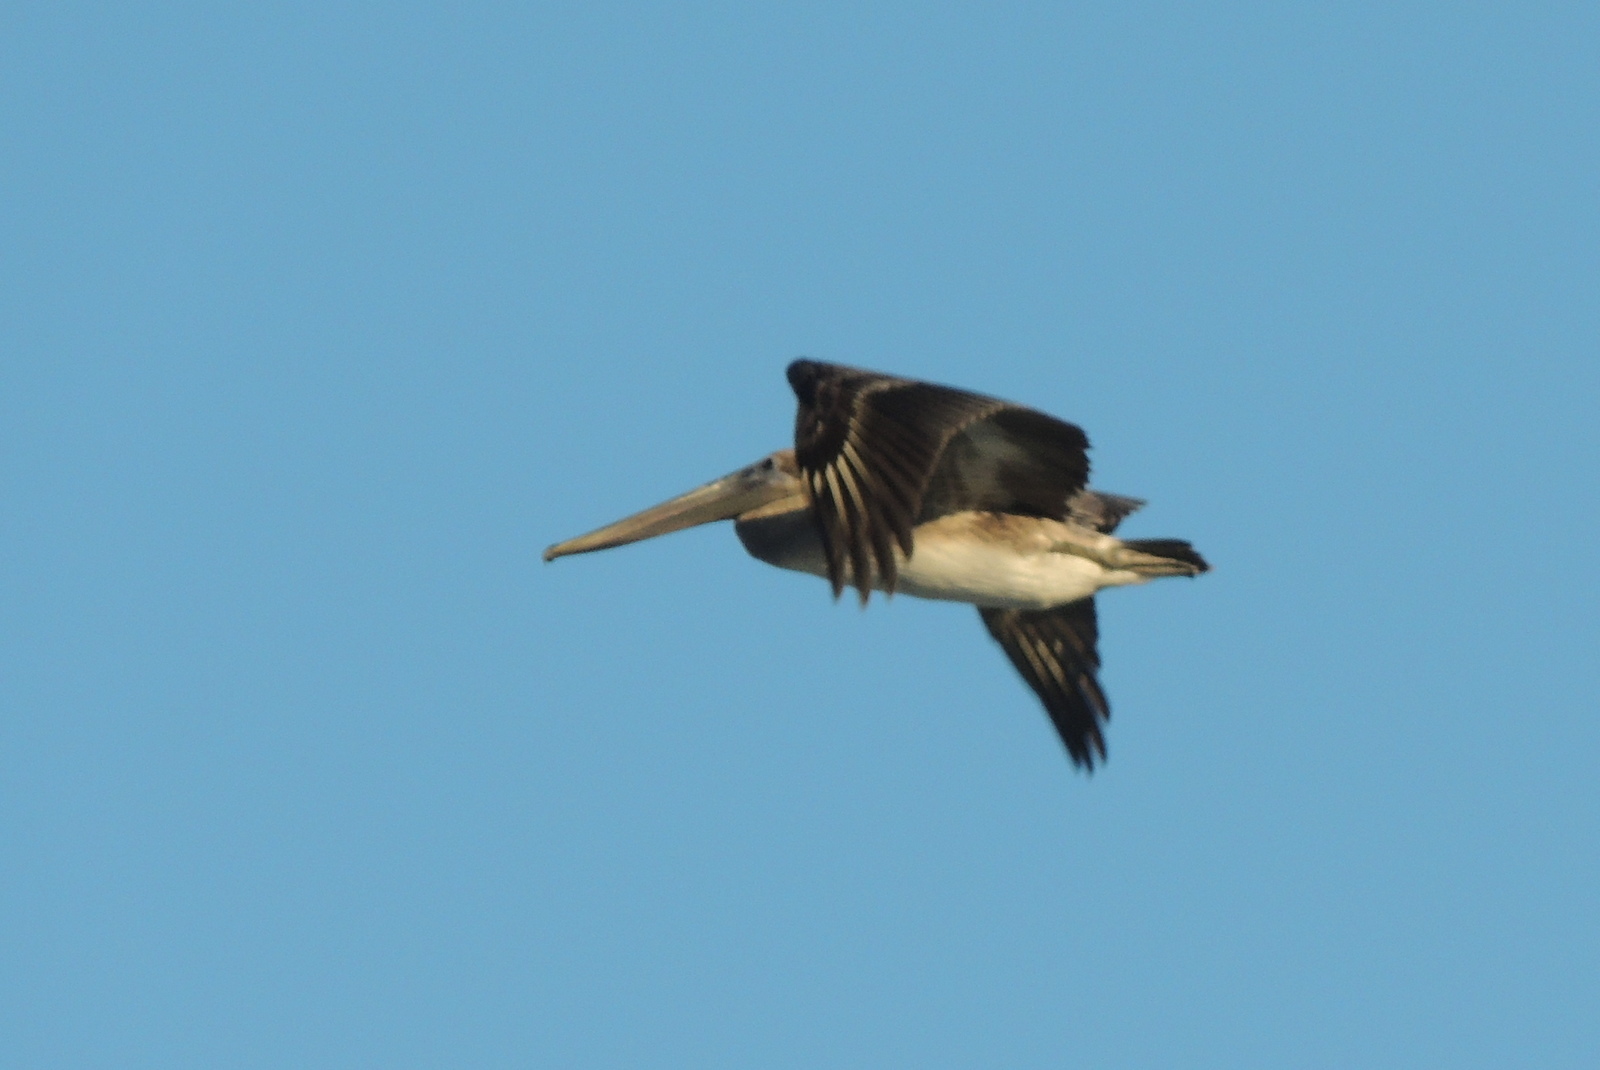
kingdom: Animalia
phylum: Chordata
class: Aves
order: Pelecaniformes
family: Pelecanidae
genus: Pelecanus
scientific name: Pelecanus occidentalis
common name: Brown pelican
